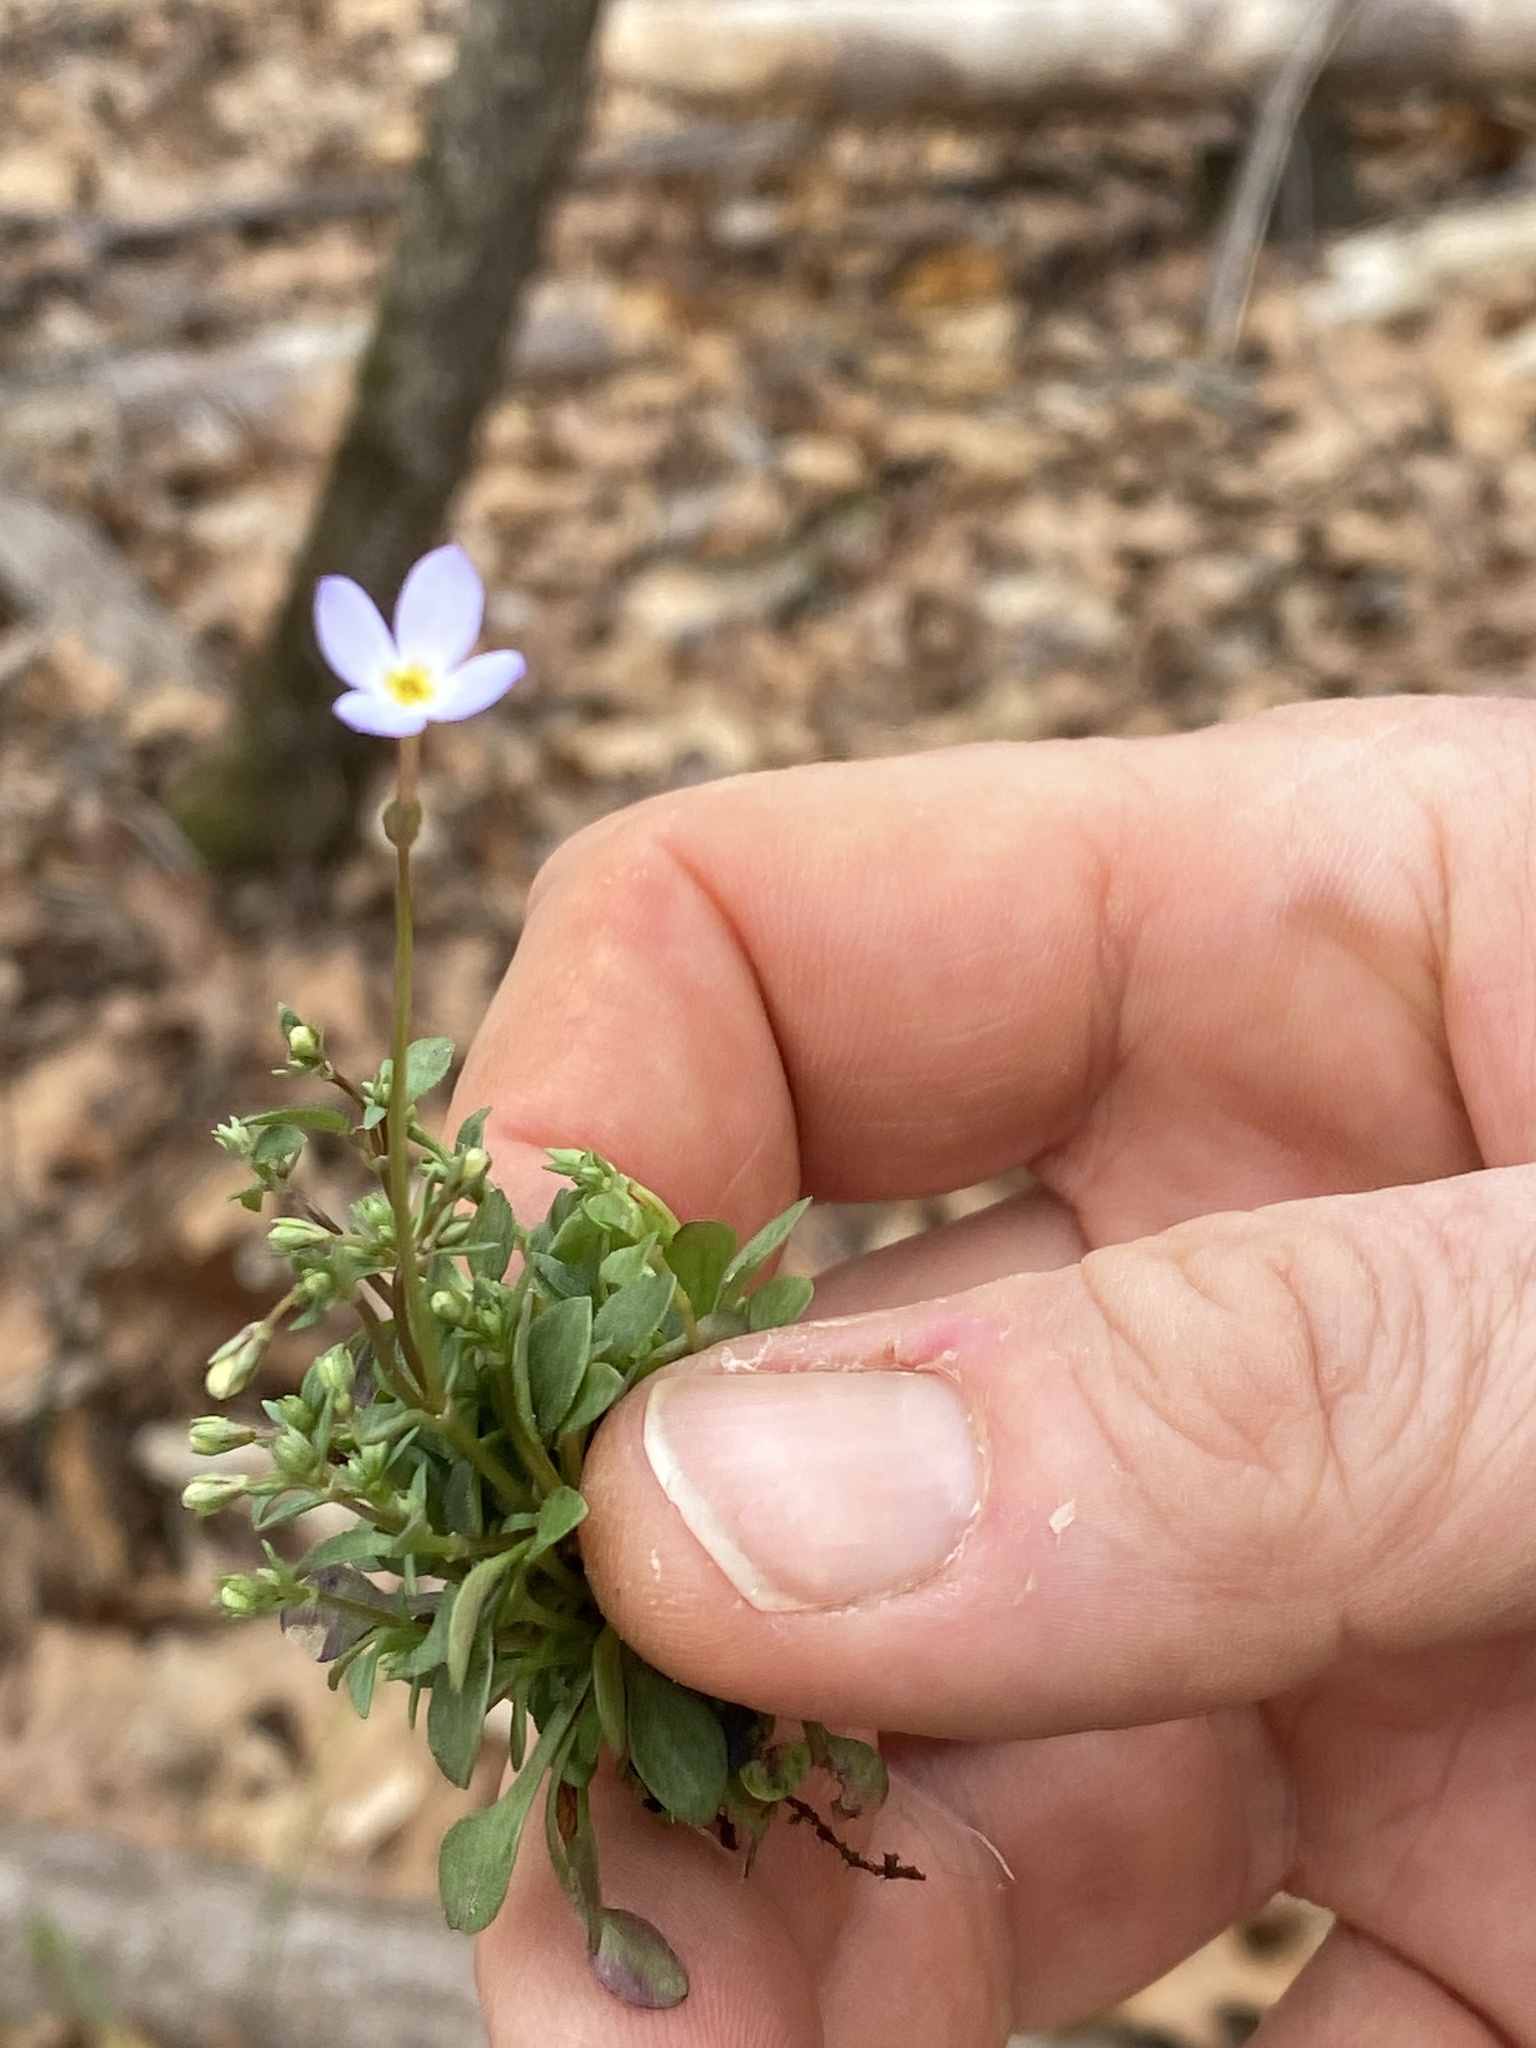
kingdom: Plantae
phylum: Tracheophyta
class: Magnoliopsida
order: Gentianales
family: Rubiaceae
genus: Houstonia
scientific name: Houstonia caerulea
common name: Bluets
